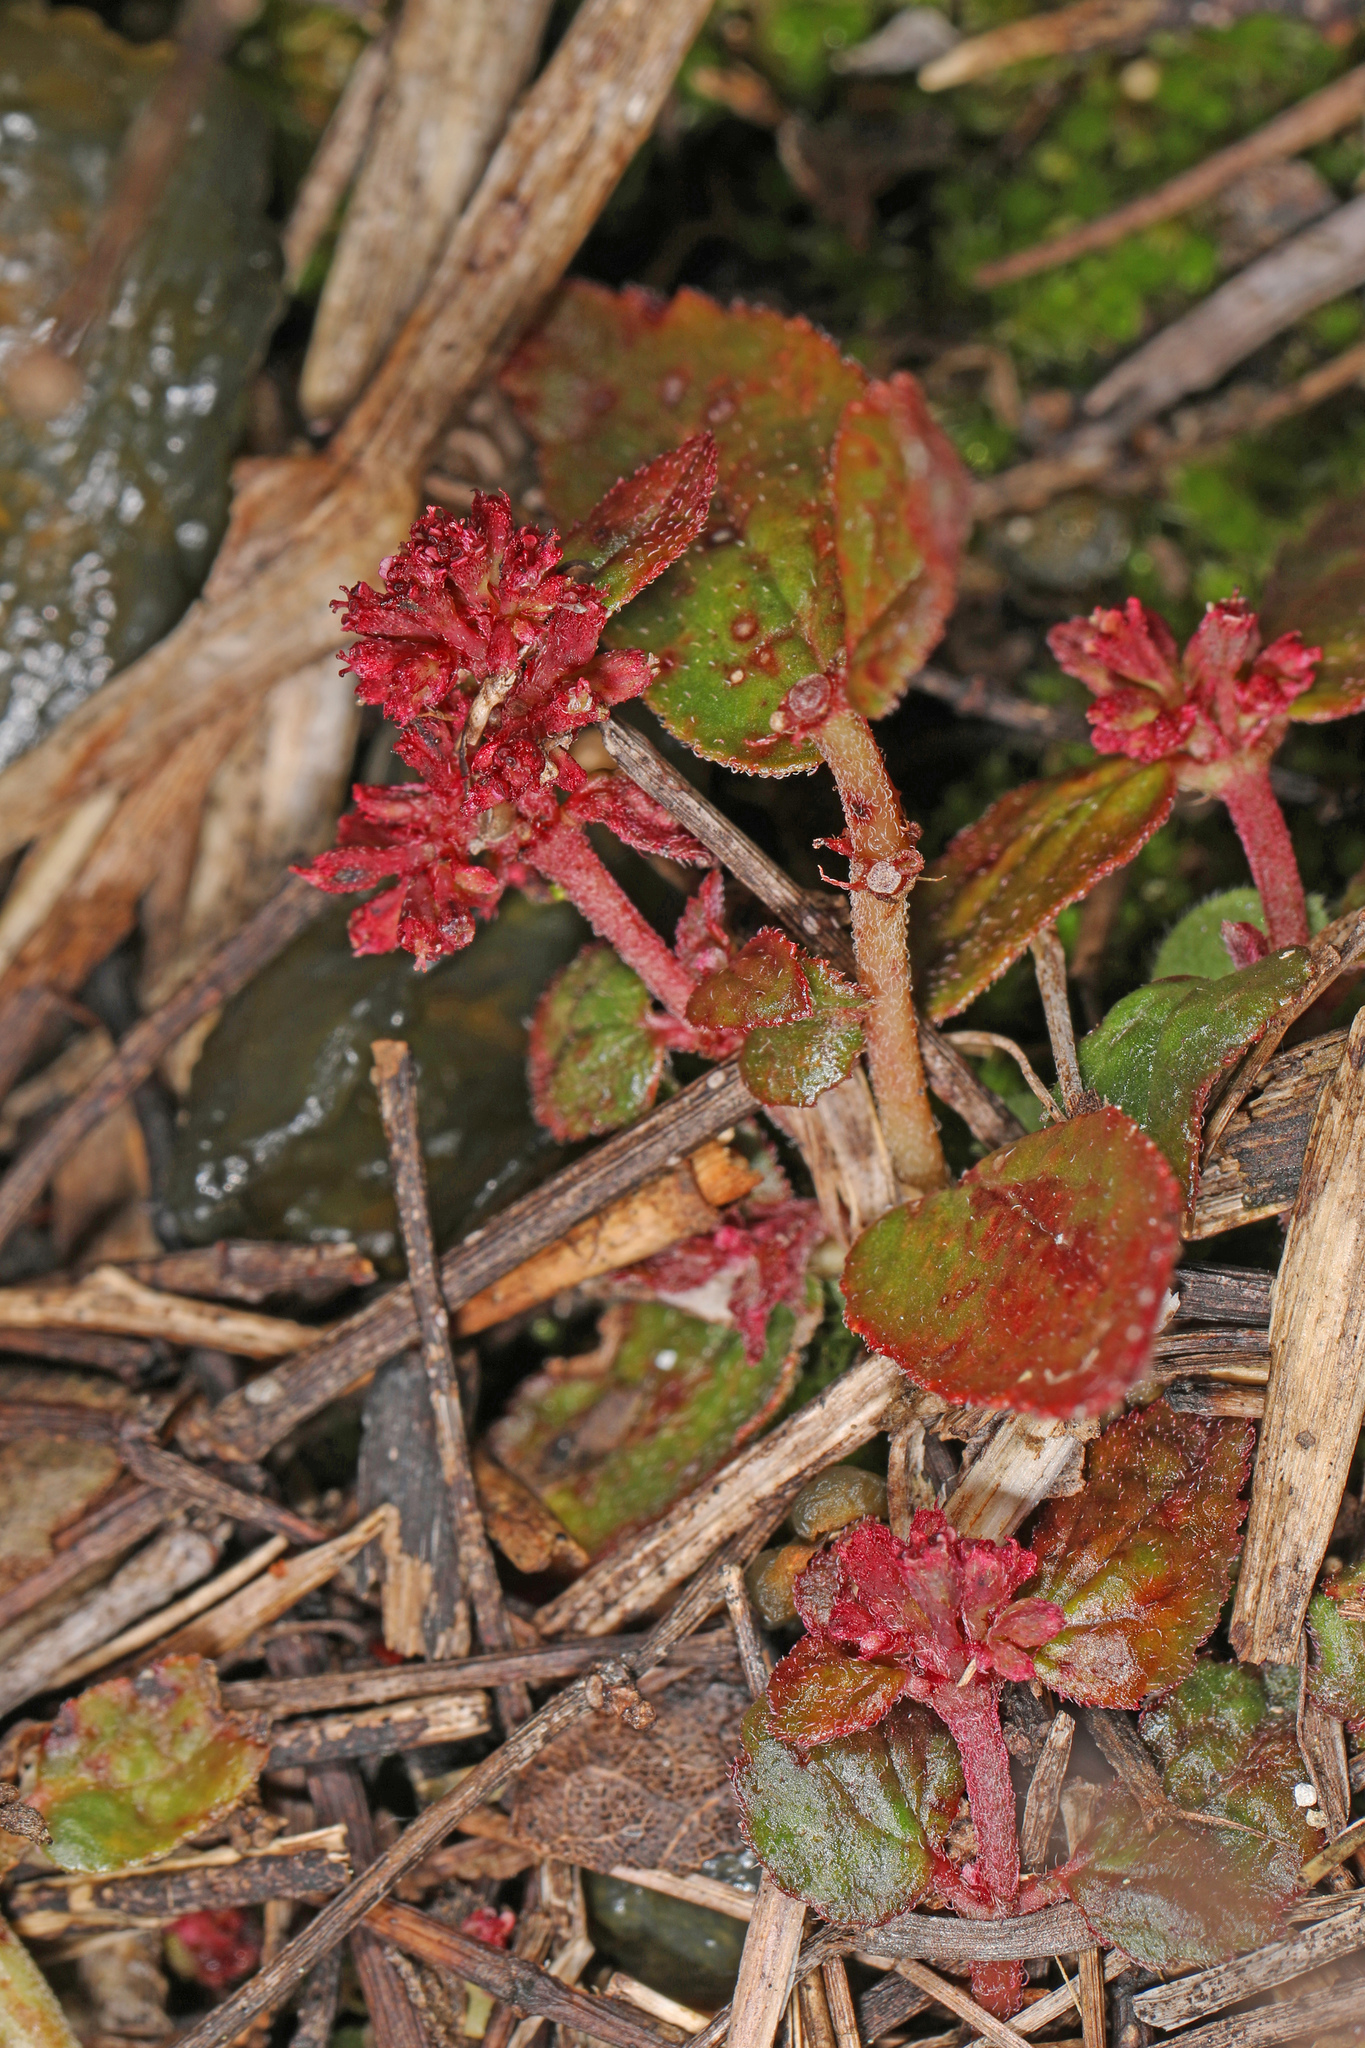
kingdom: Plantae
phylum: Tracheophyta
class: Magnoliopsida
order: Malpighiales
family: Euphorbiaceae
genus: Euphorbia
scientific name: Euphorbia ophthalmica
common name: Florida hammock sandmat
